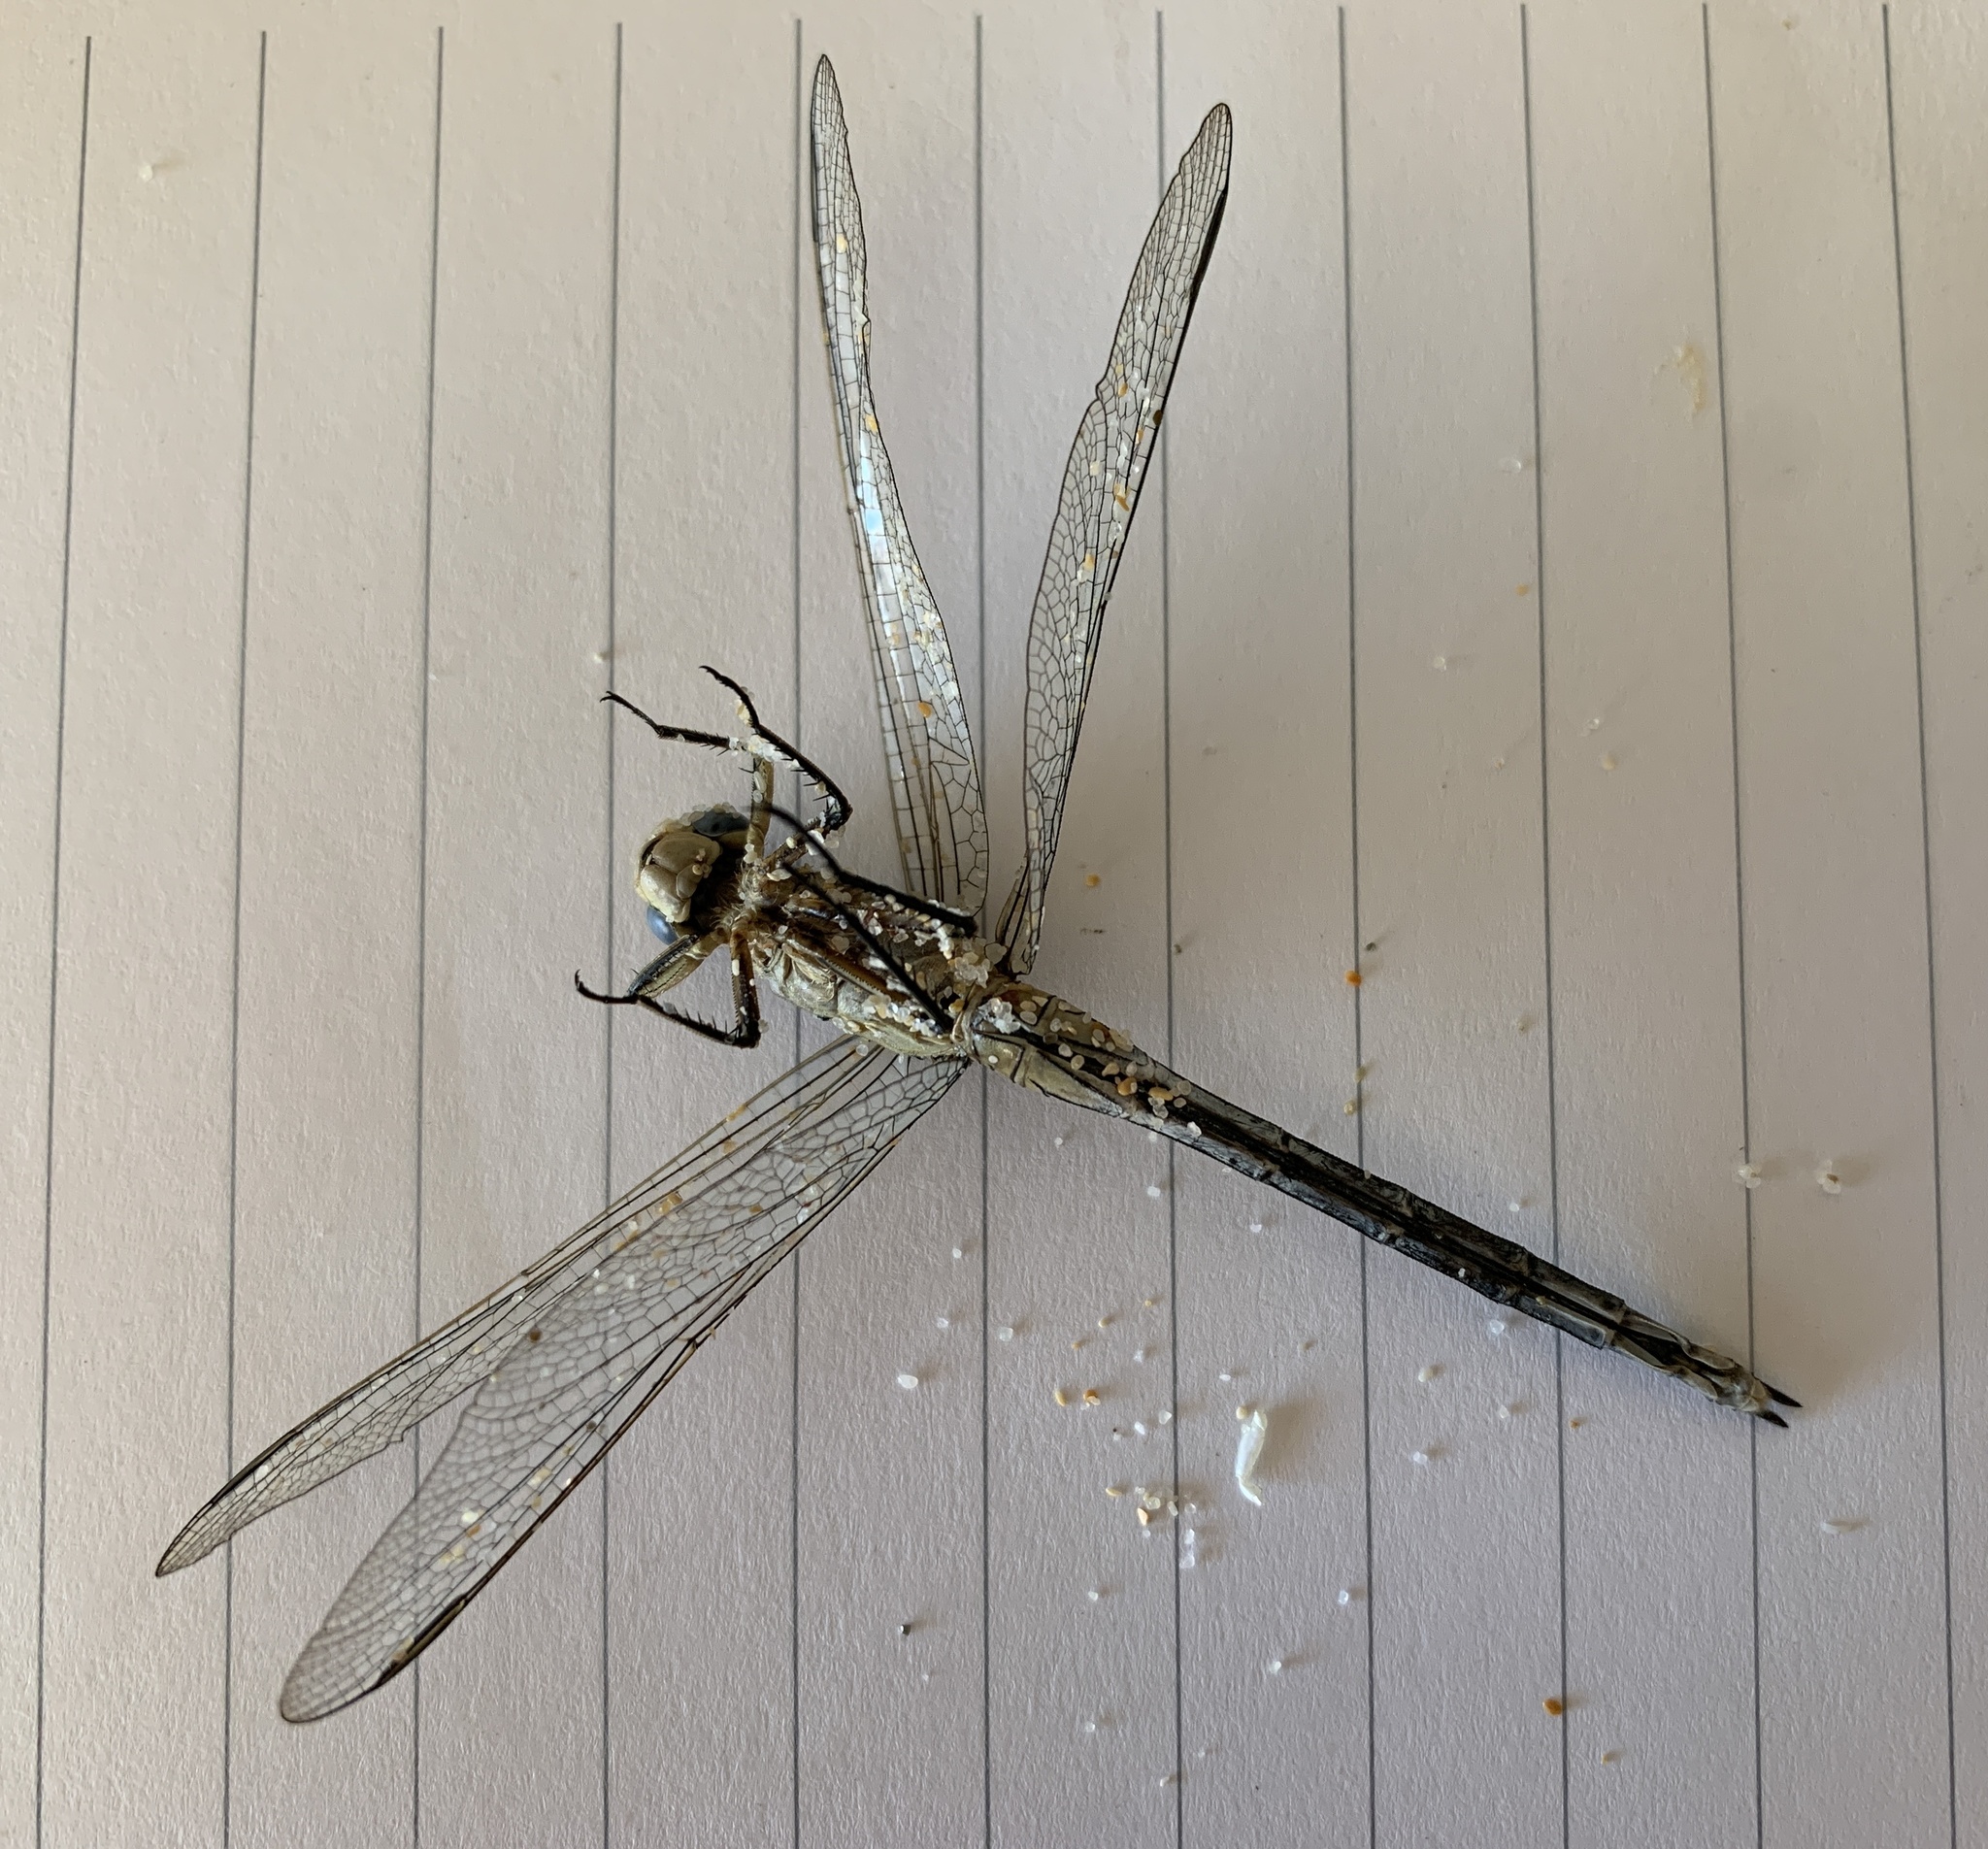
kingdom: Animalia
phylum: Arthropoda
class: Insecta
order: Odonata
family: Libellulidae
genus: Orthetrum
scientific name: Orthetrum trinacria
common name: Long skimmer
